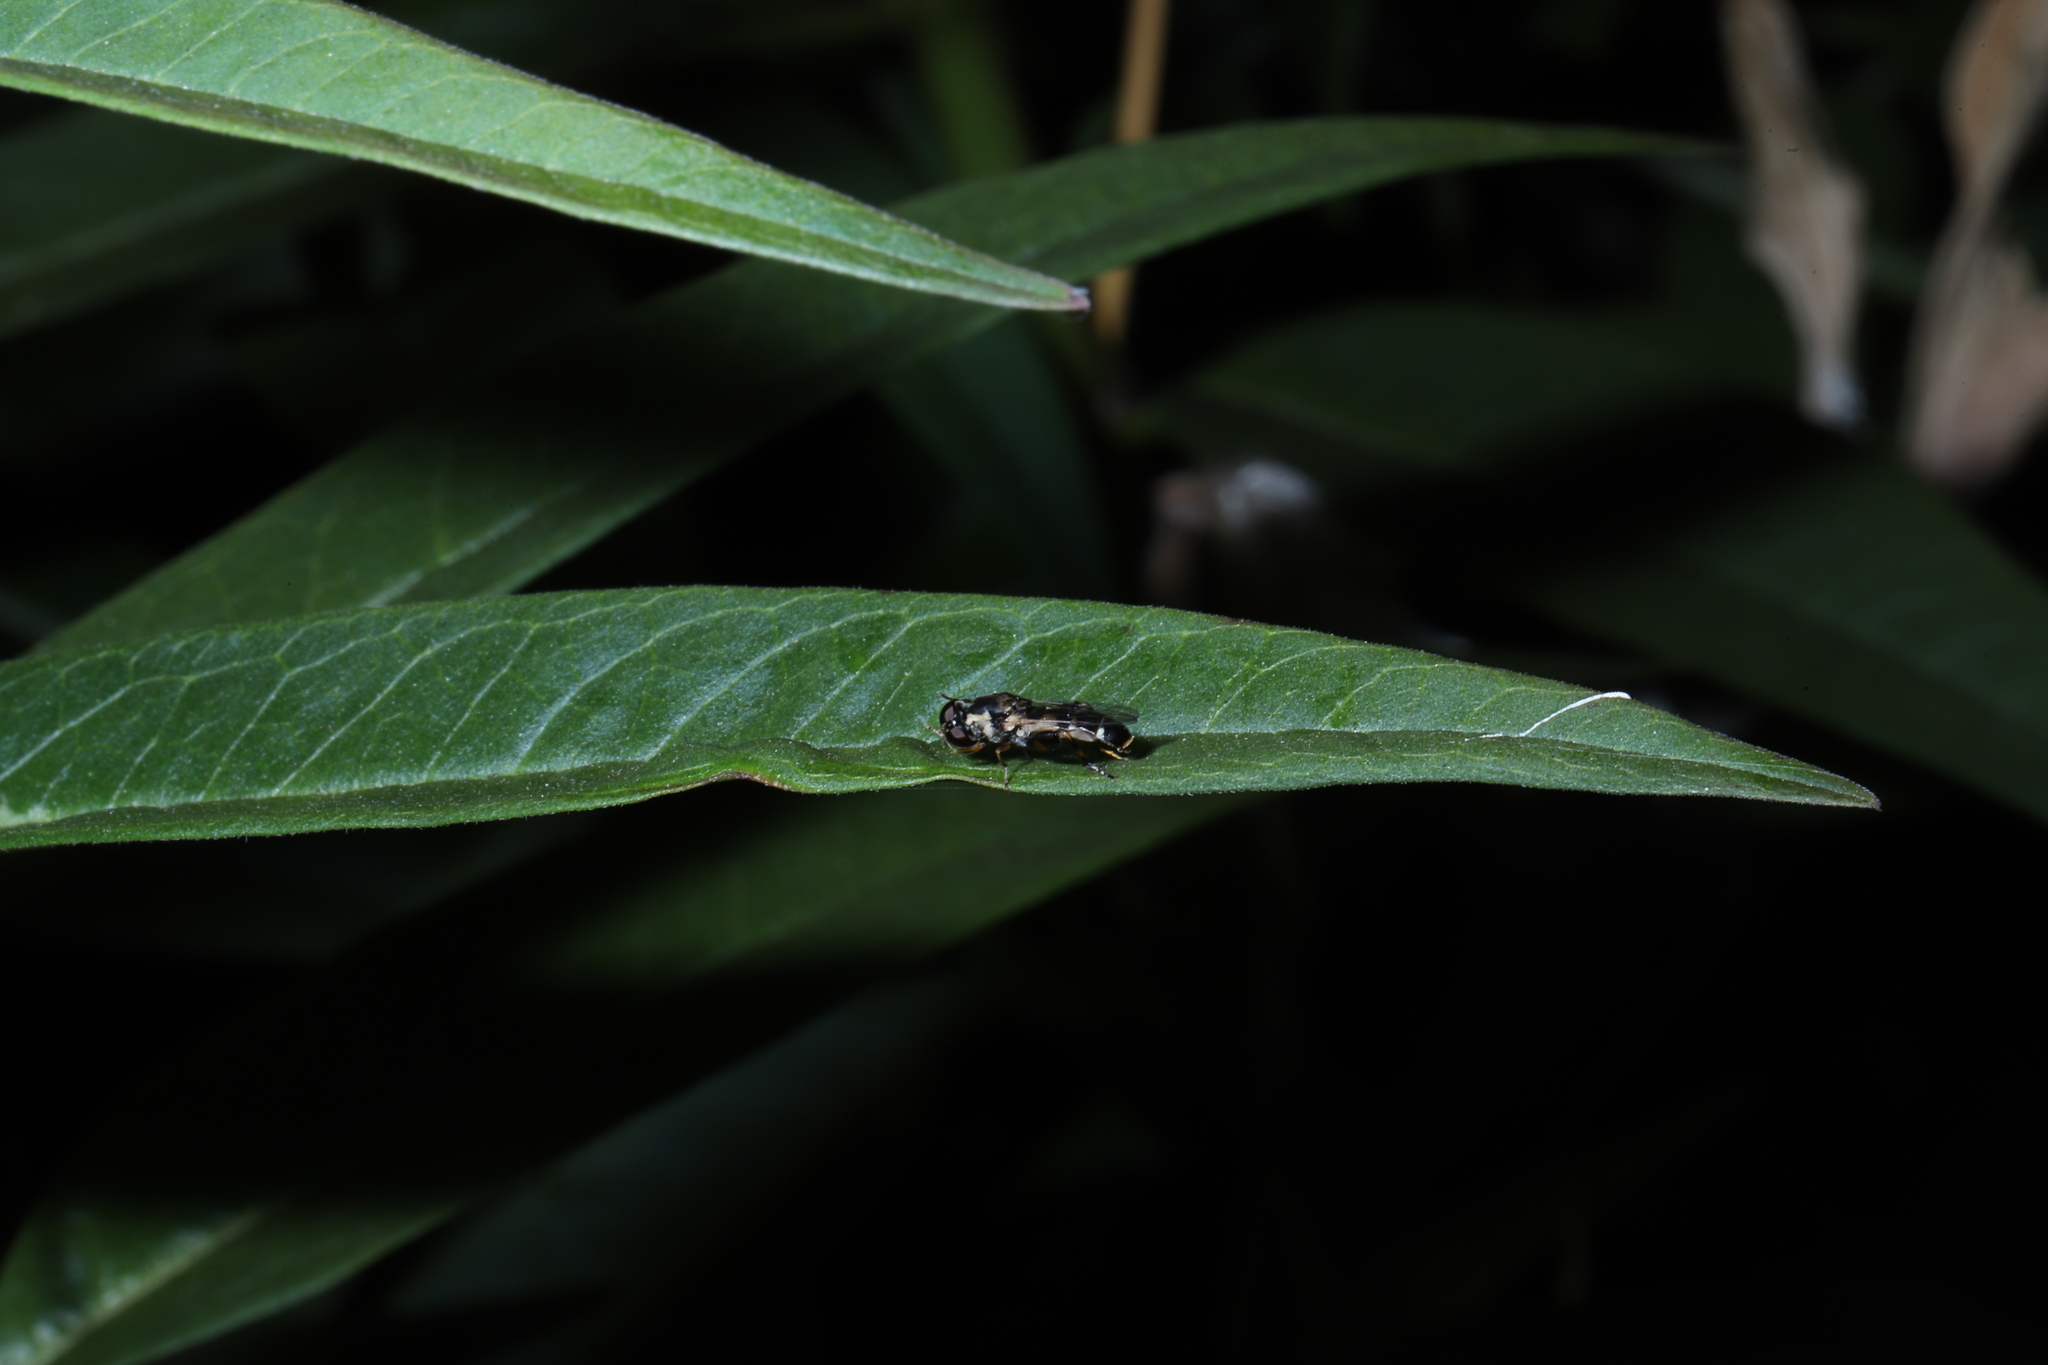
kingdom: Animalia
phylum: Arthropoda
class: Insecta
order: Diptera
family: Syrphidae
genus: Syritta
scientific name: Syritta pipiens
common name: Hover fly
